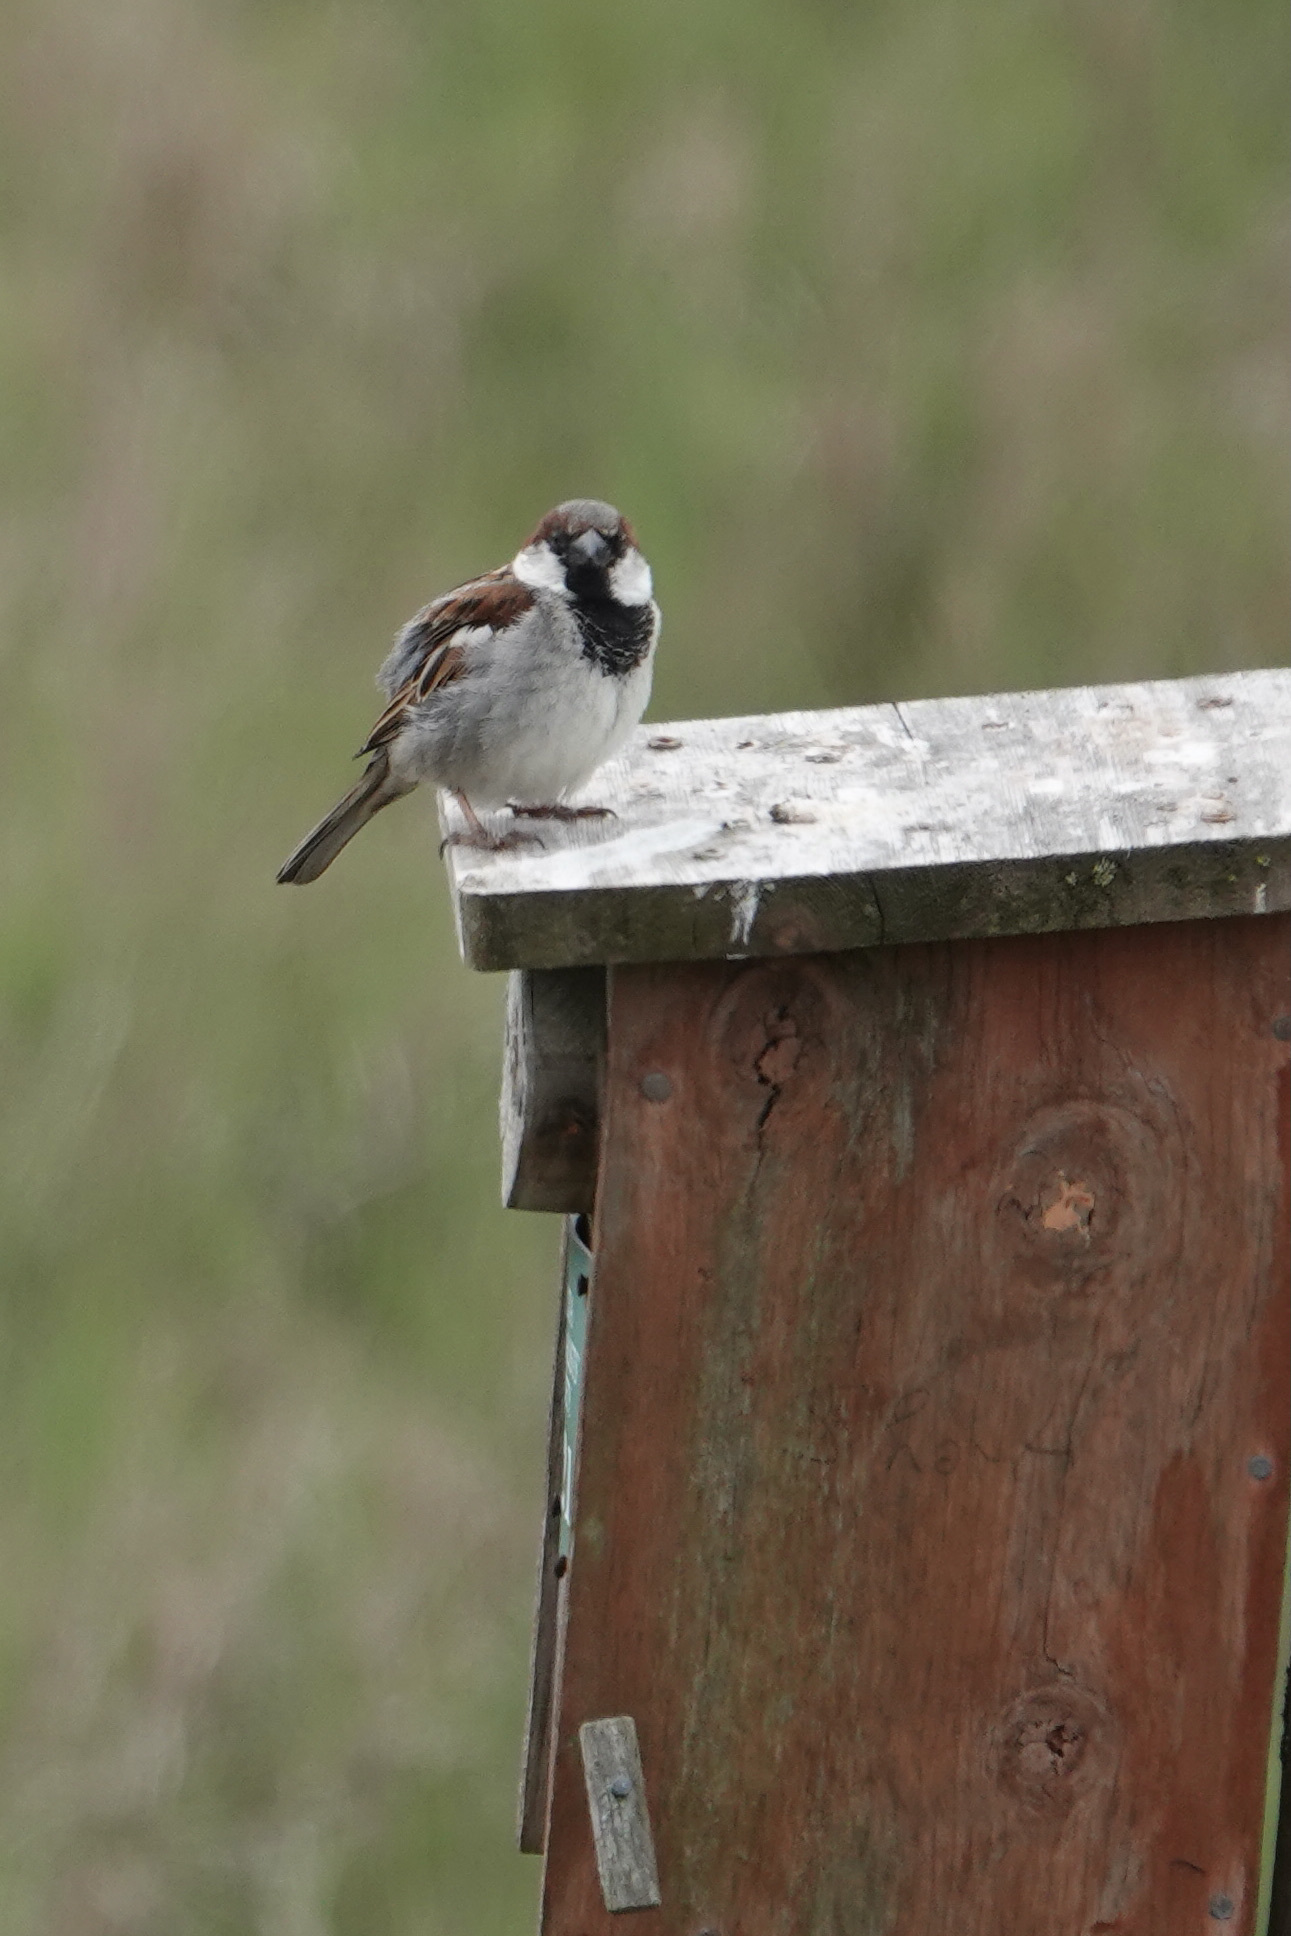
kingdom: Animalia
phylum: Chordata
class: Aves
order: Passeriformes
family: Passeridae
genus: Passer
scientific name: Passer domesticus
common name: House sparrow
